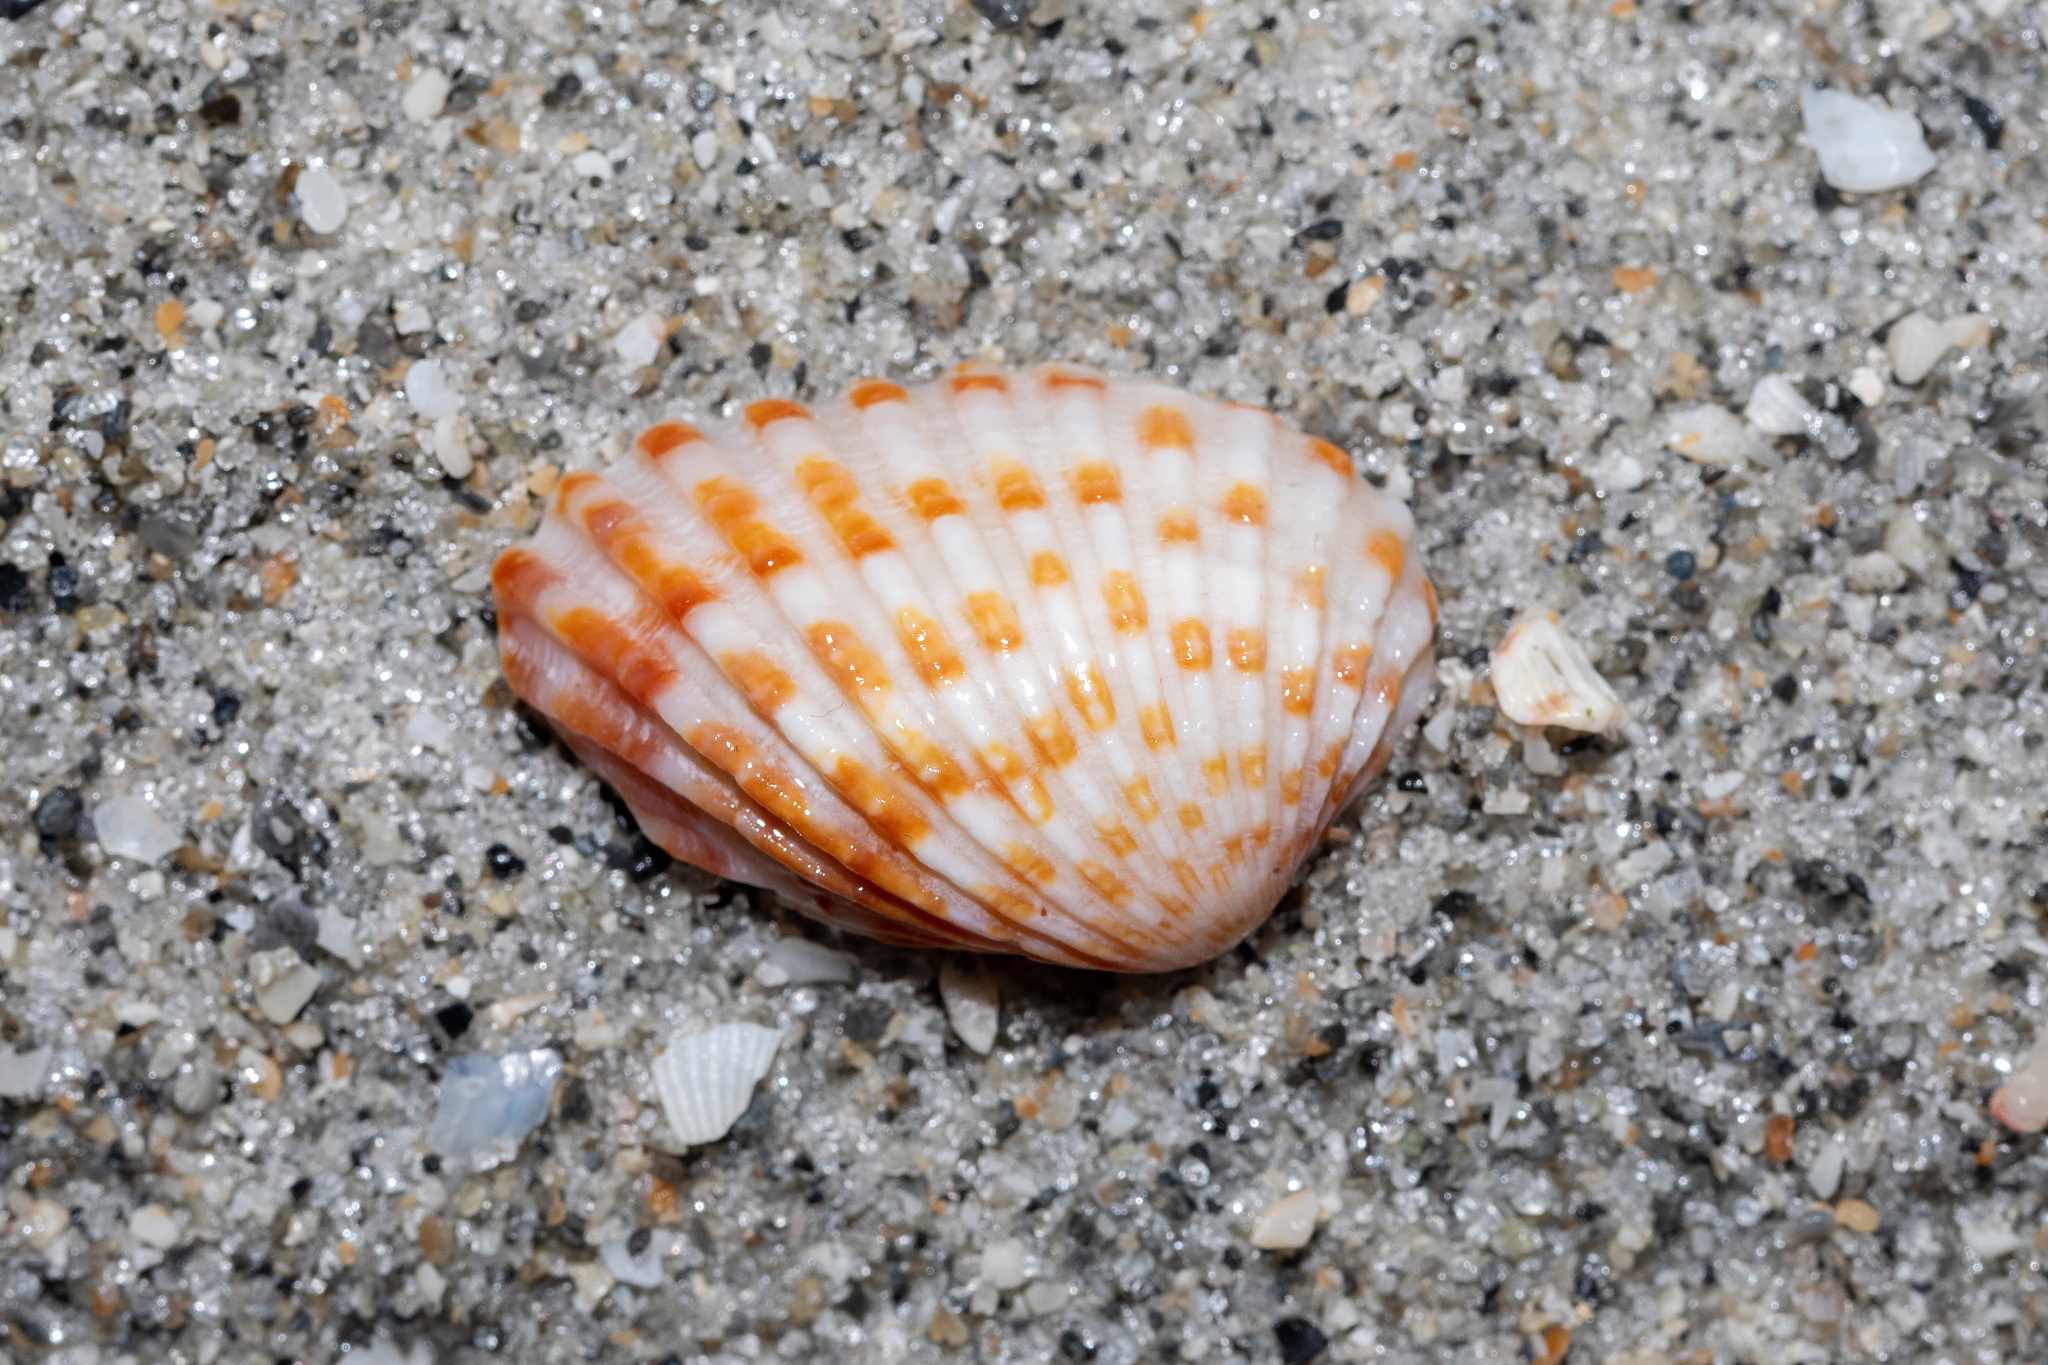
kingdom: Animalia
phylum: Mollusca
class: Bivalvia
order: Carditida
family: Carditidae
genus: Cardites
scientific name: Cardites floridanus
